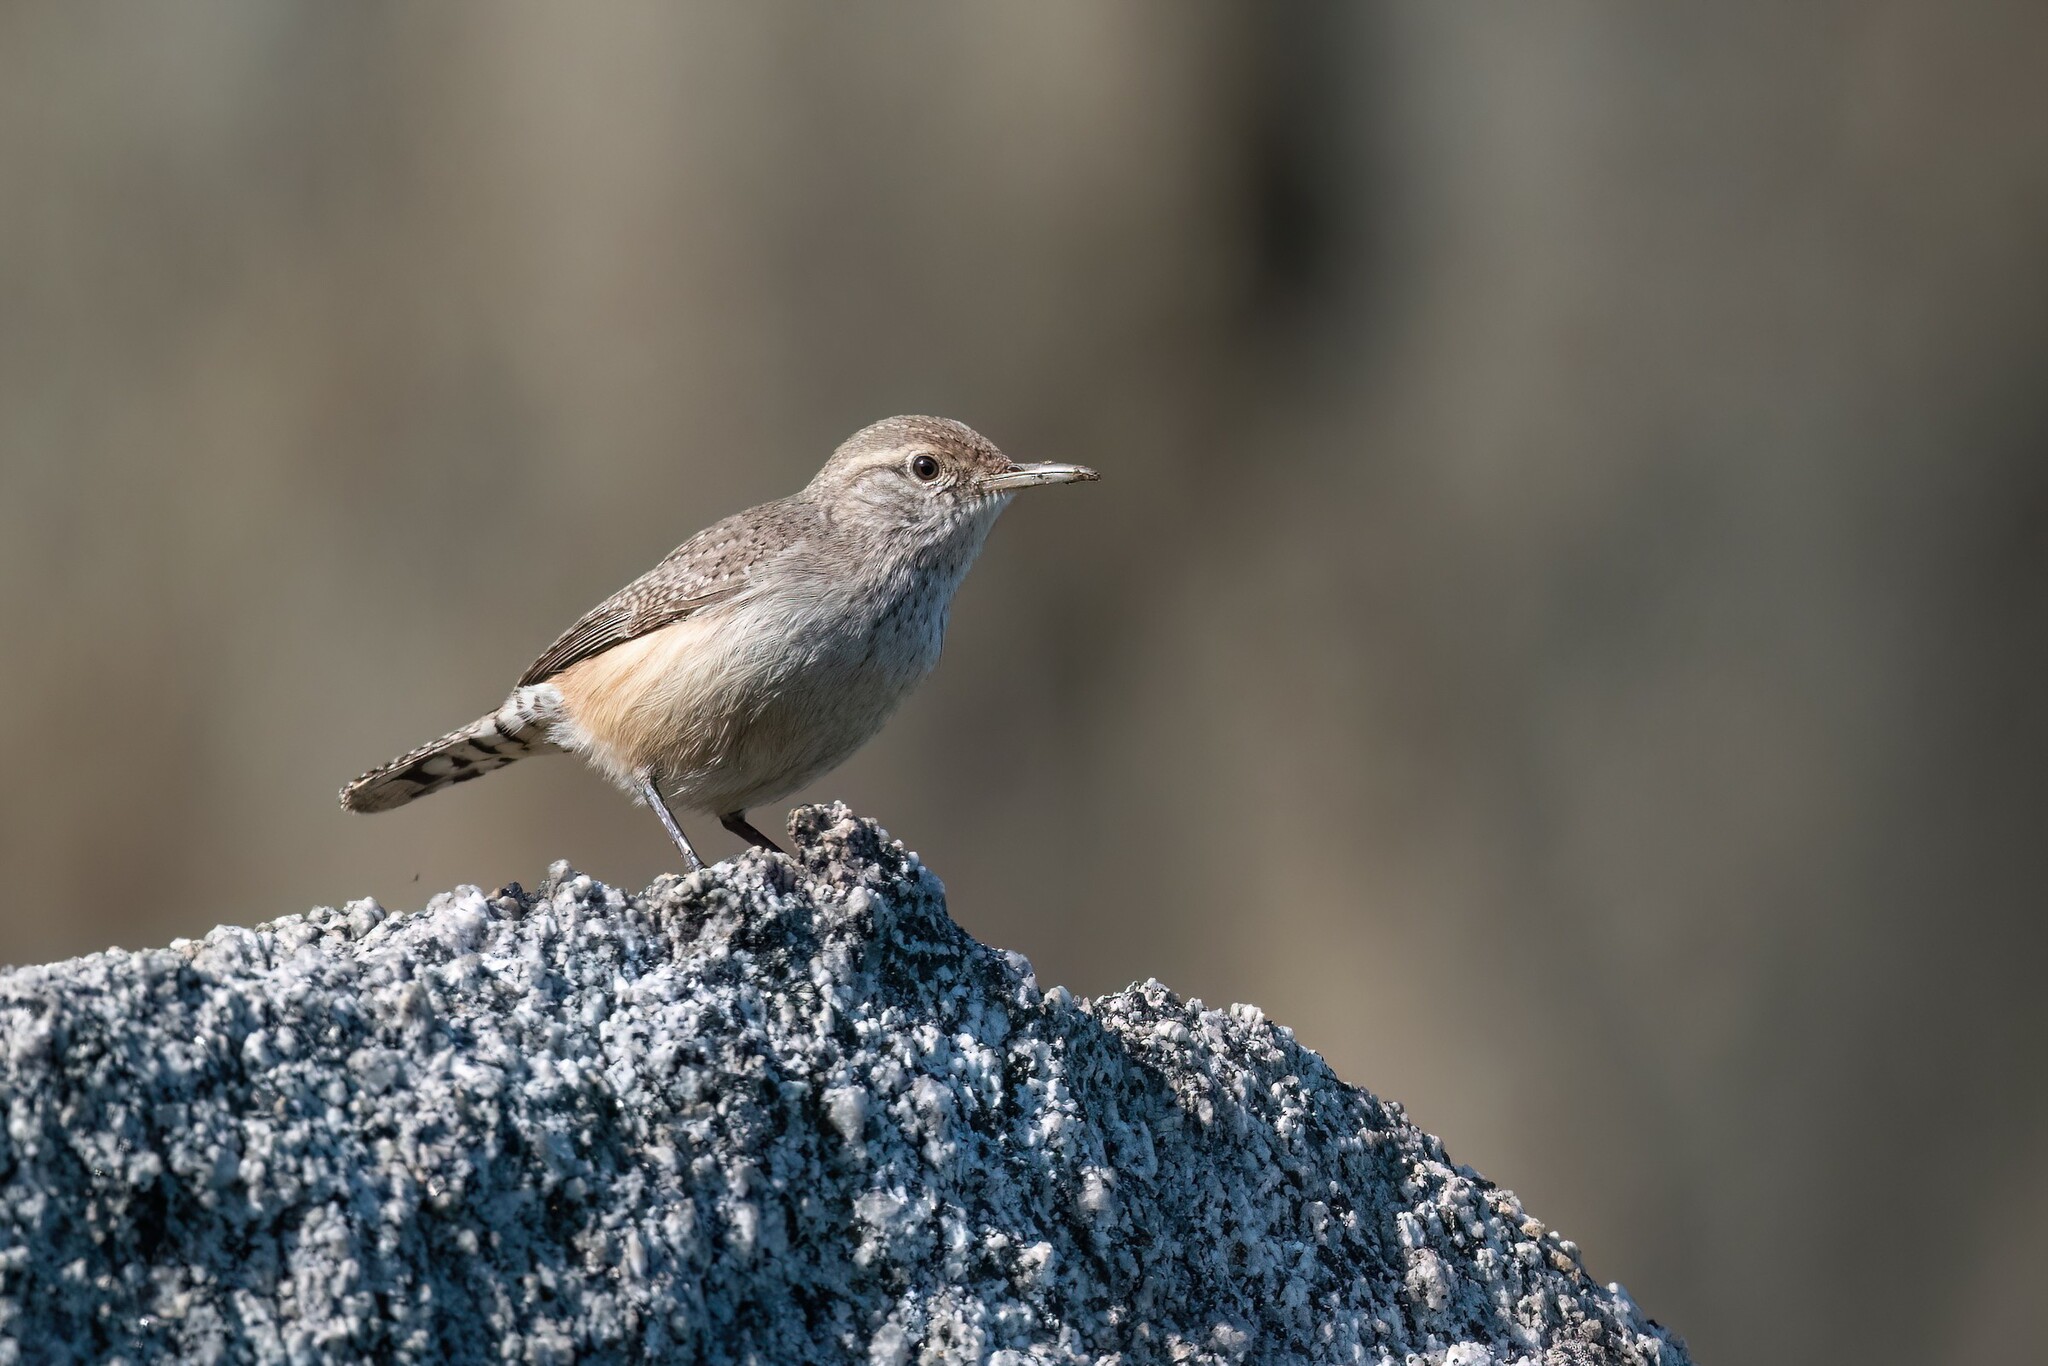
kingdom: Animalia
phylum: Chordata
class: Aves
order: Passeriformes
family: Troglodytidae
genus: Salpinctes
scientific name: Salpinctes obsoletus
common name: Rock wren
